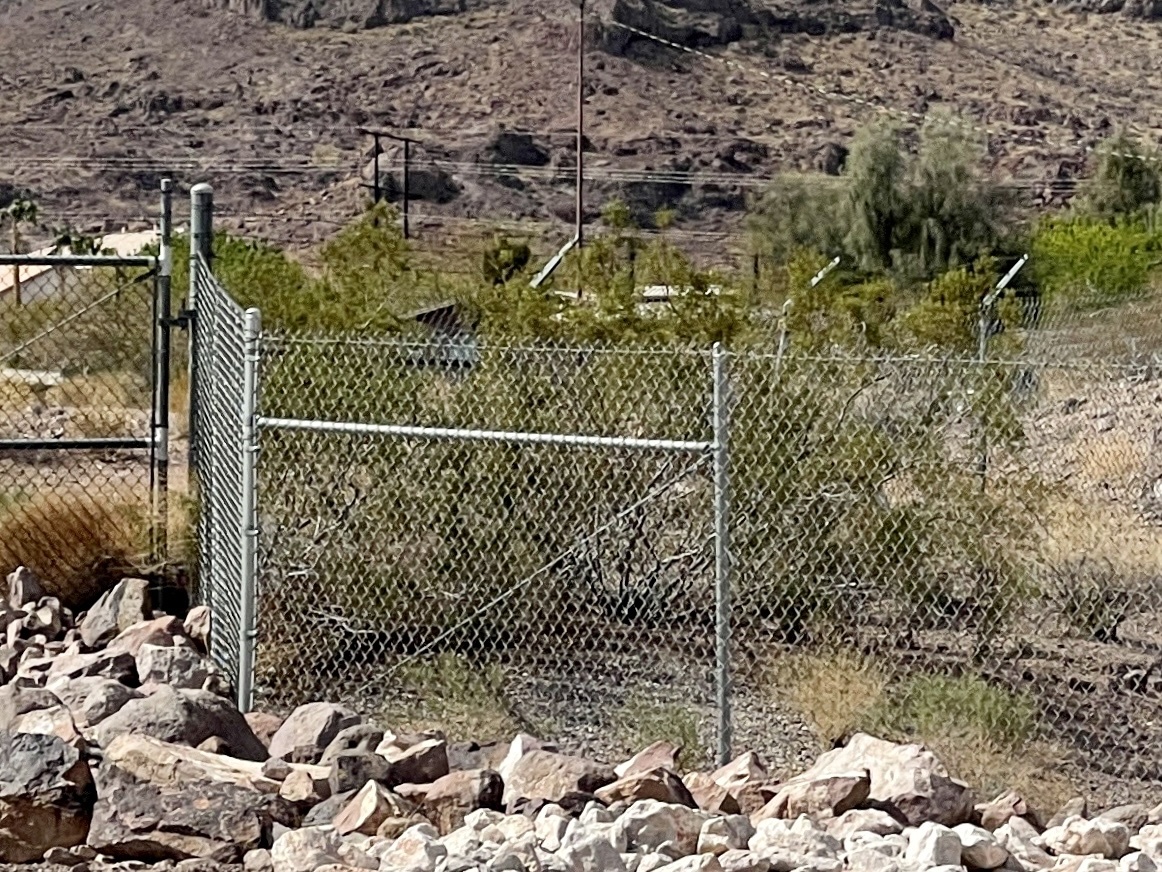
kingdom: Plantae
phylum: Tracheophyta
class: Magnoliopsida
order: Zygophyllales
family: Zygophyllaceae
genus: Larrea
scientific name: Larrea tridentata
